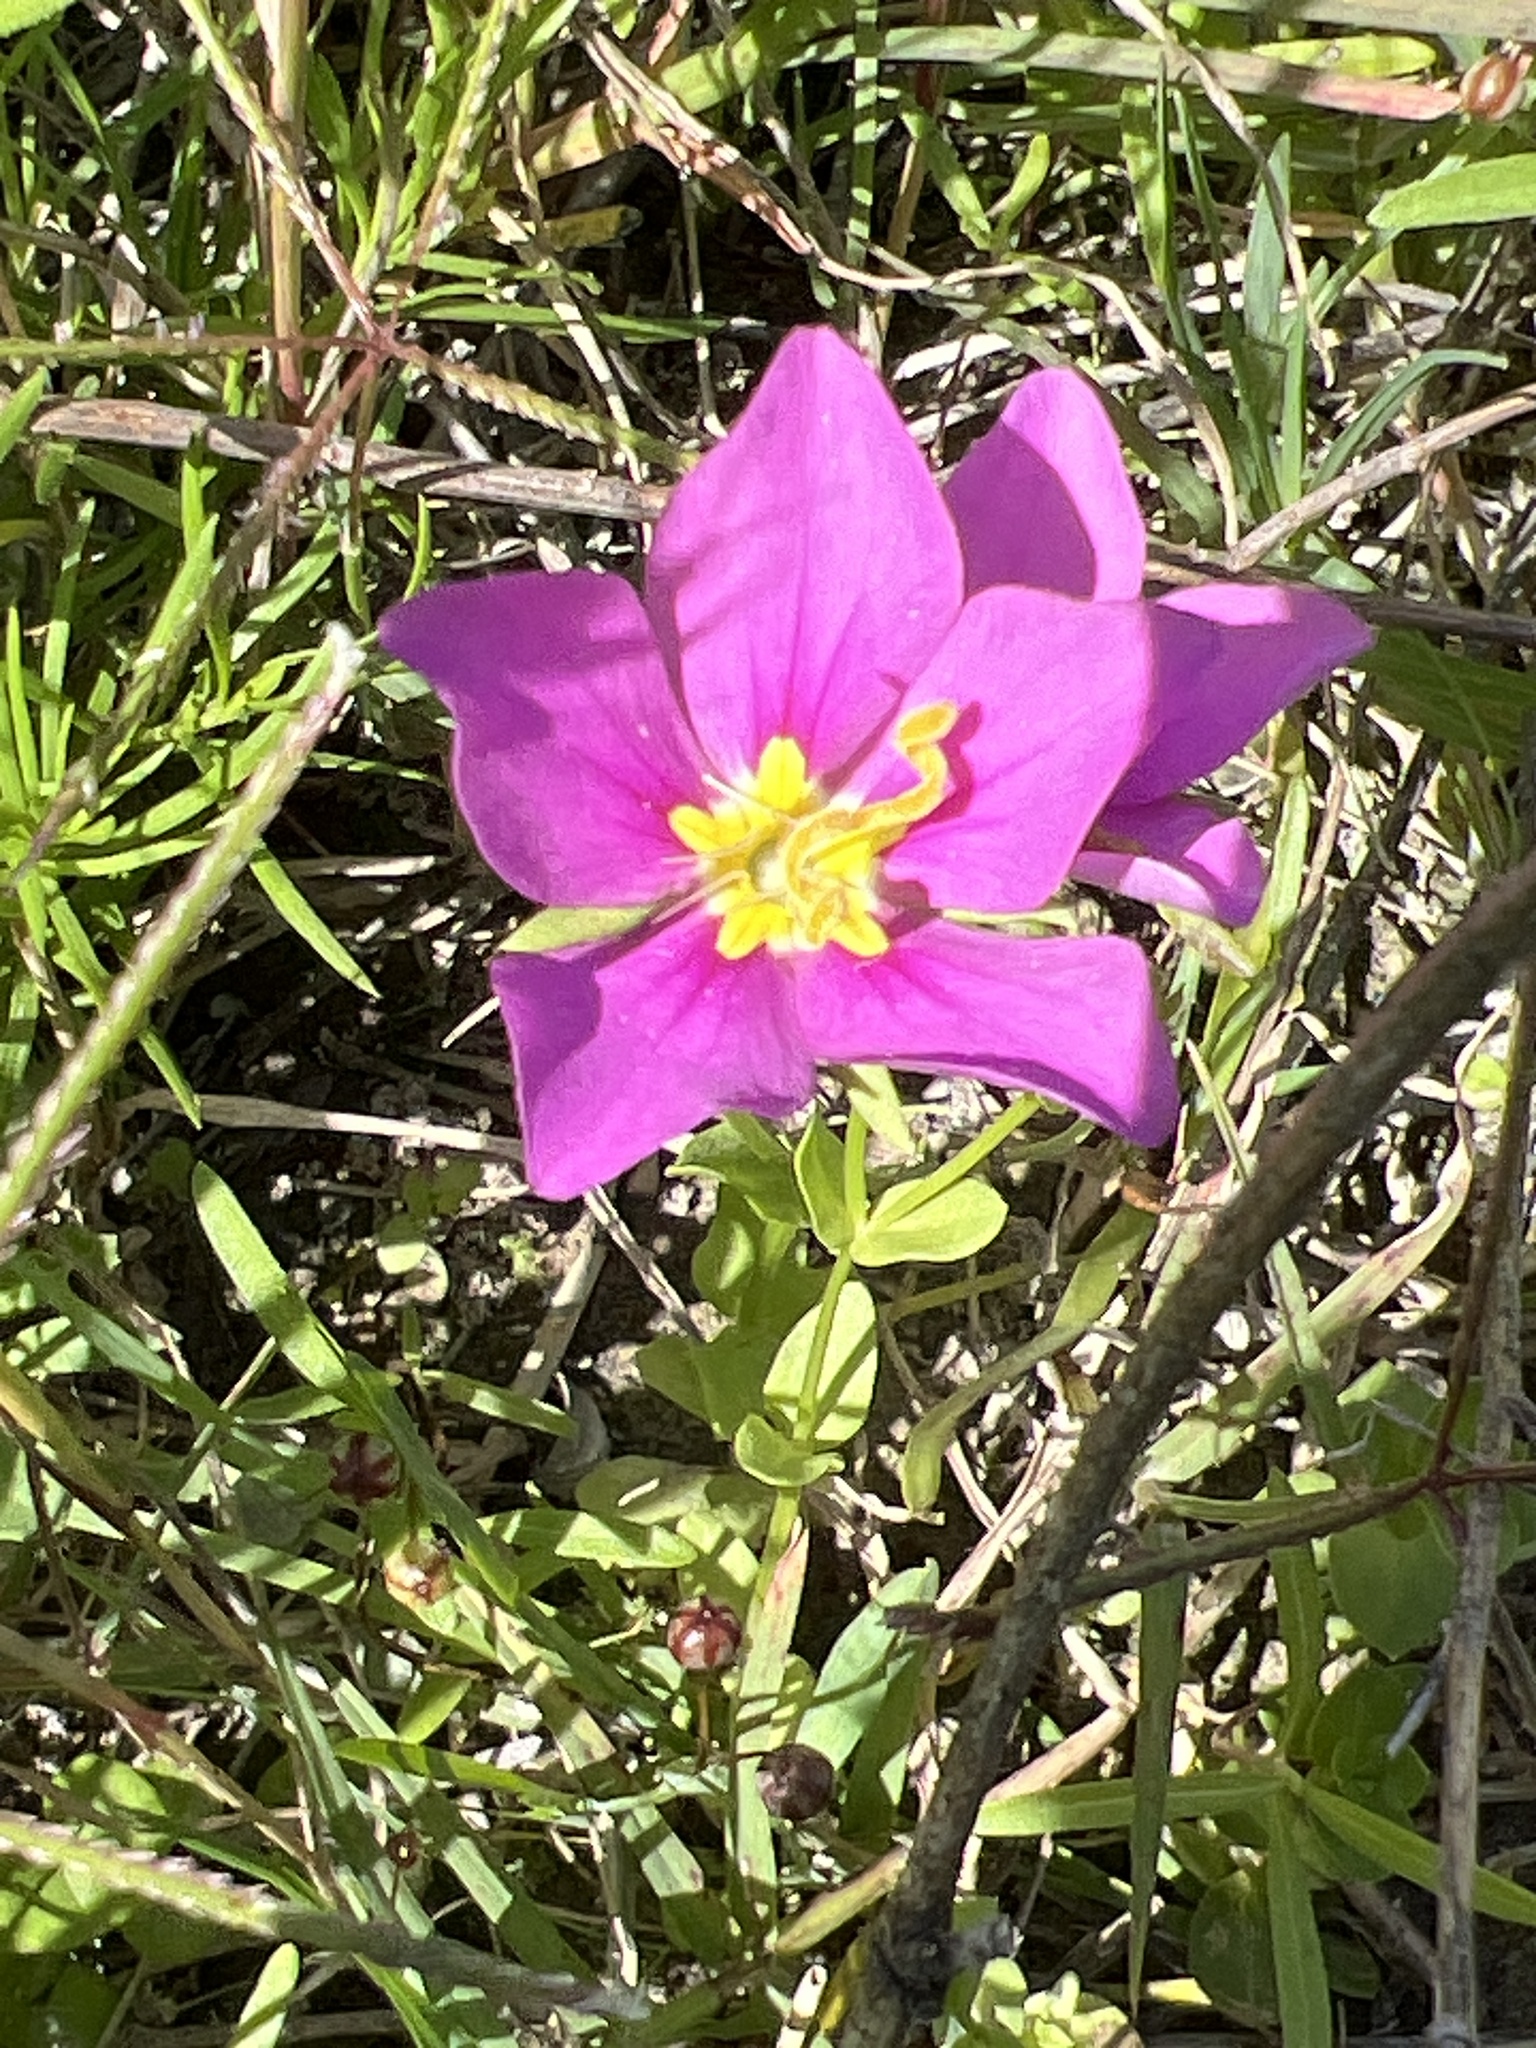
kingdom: Plantae
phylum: Tracheophyta
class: Magnoliopsida
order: Gentianales
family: Gentianaceae
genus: Sabatia
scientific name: Sabatia campestris
